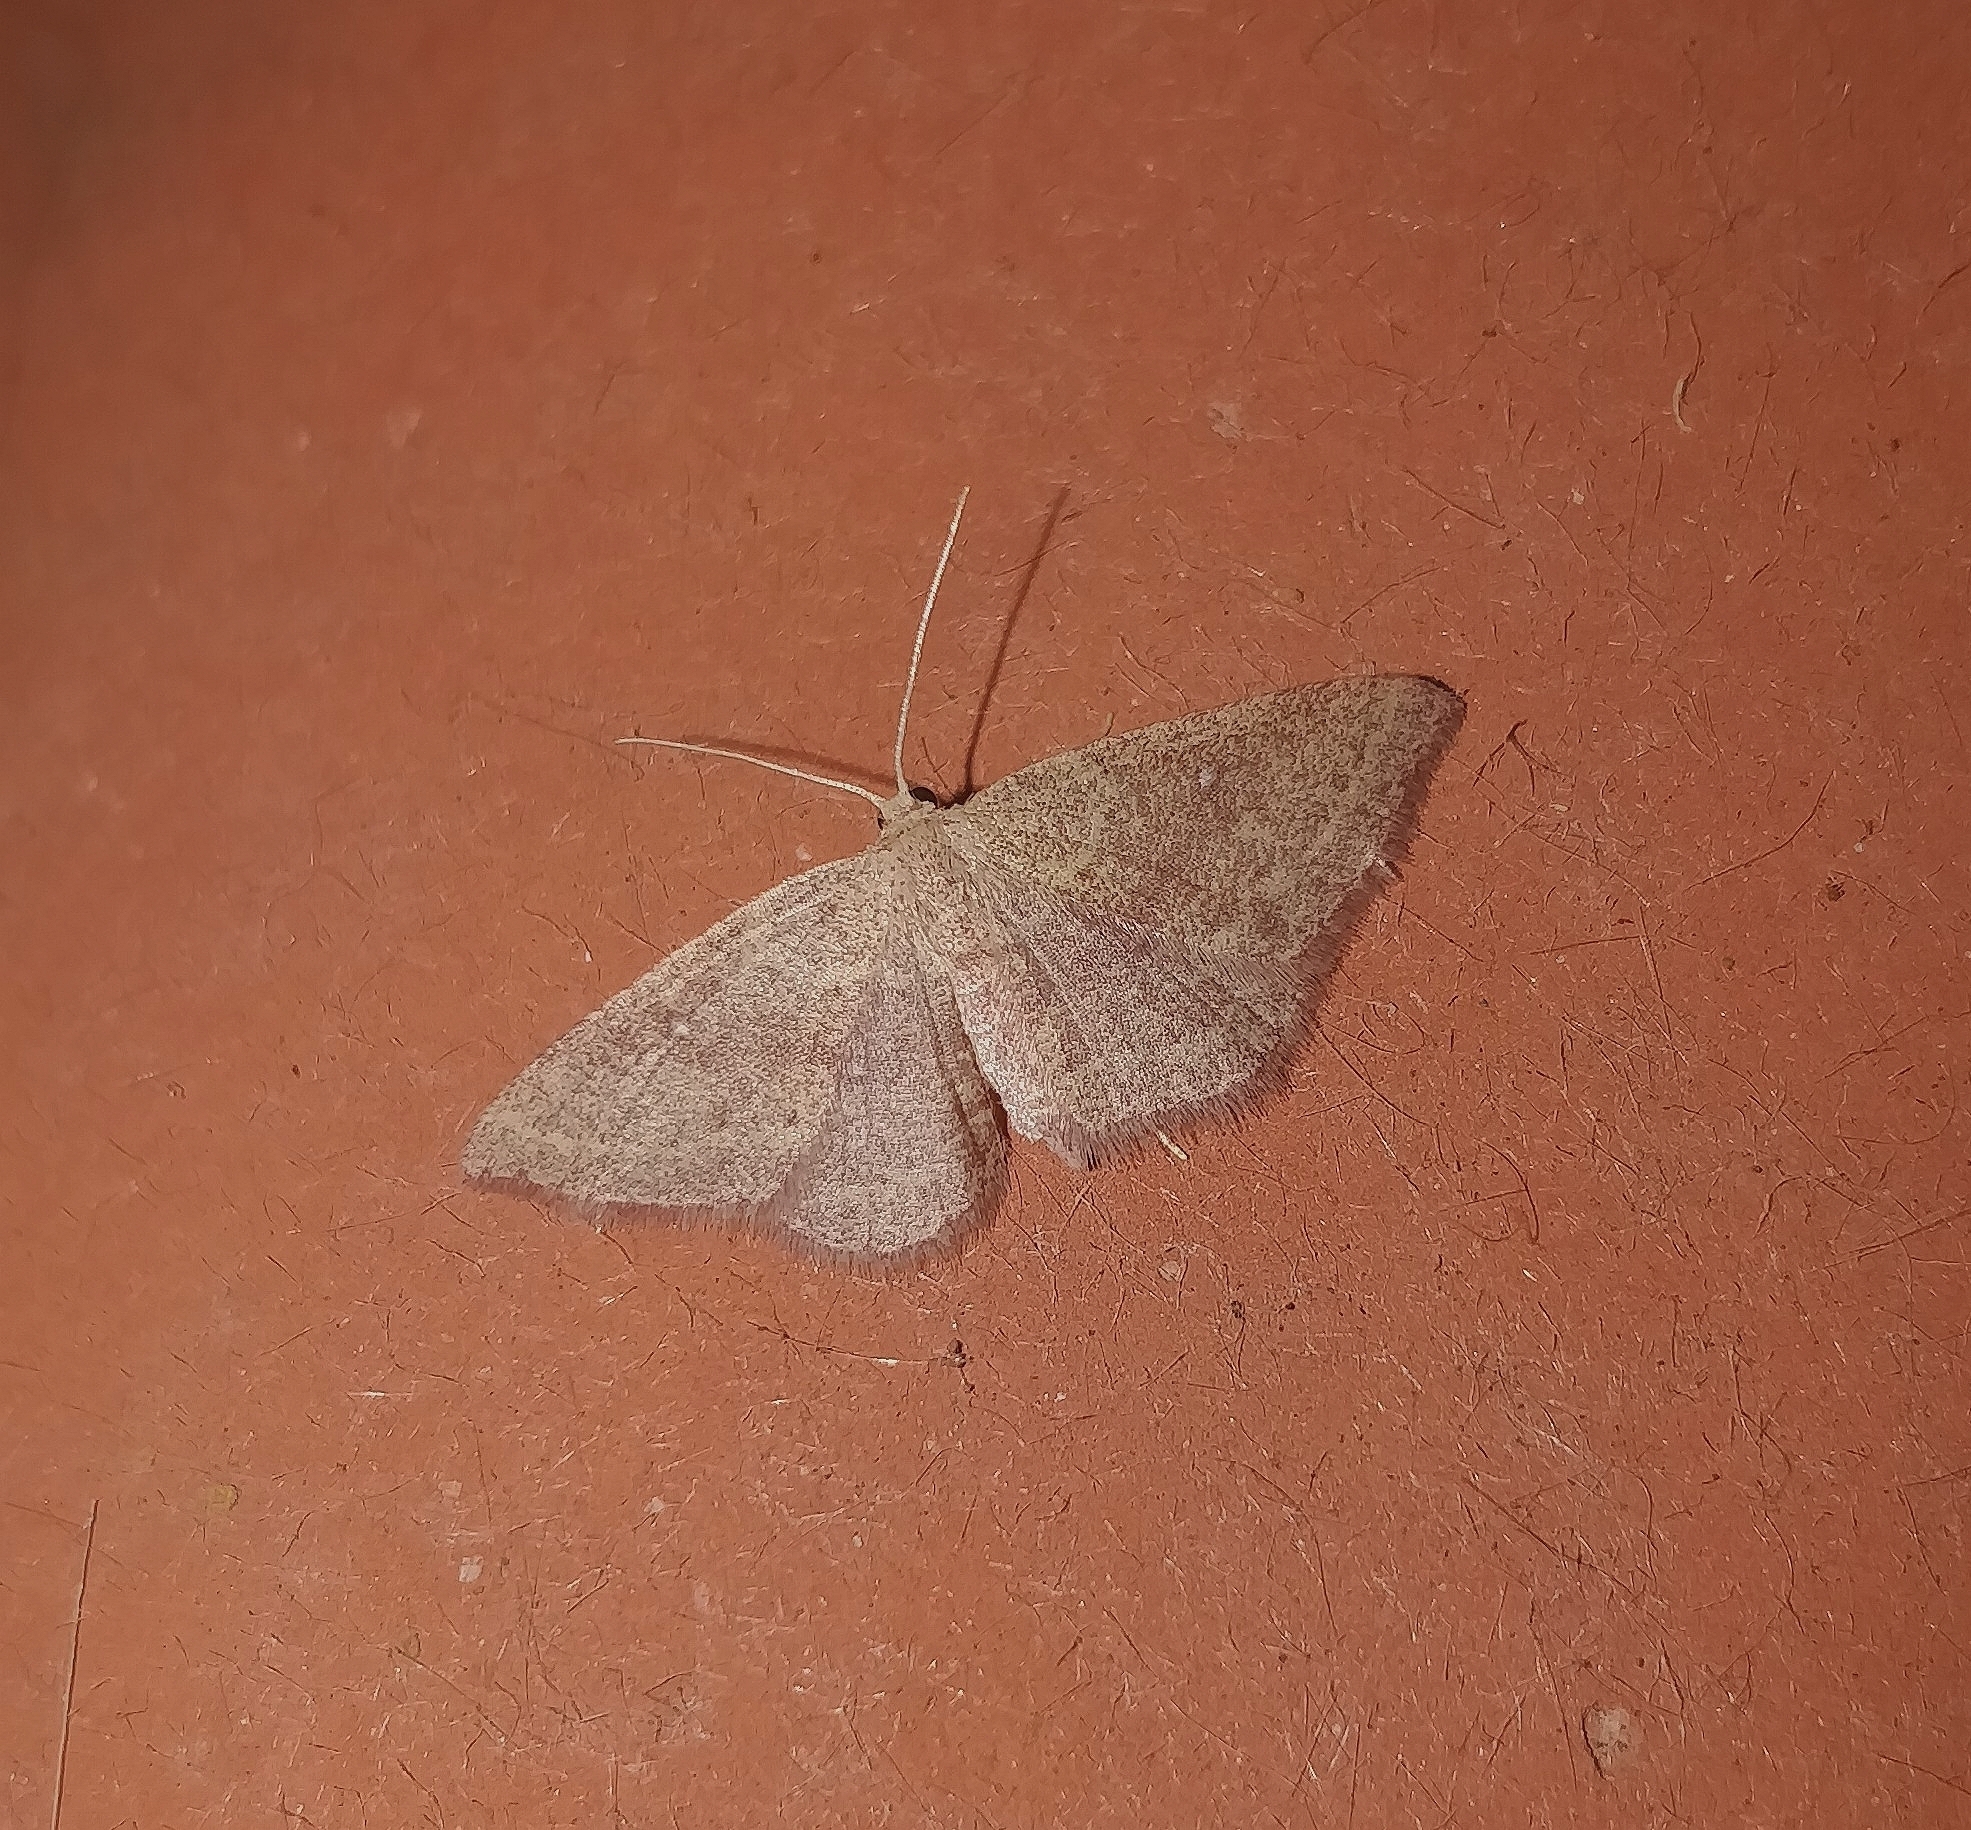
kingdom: Animalia
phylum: Arthropoda
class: Insecta
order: Lepidoptera
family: Geometridae
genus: Cyclophora
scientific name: Cyclophora maderensis
